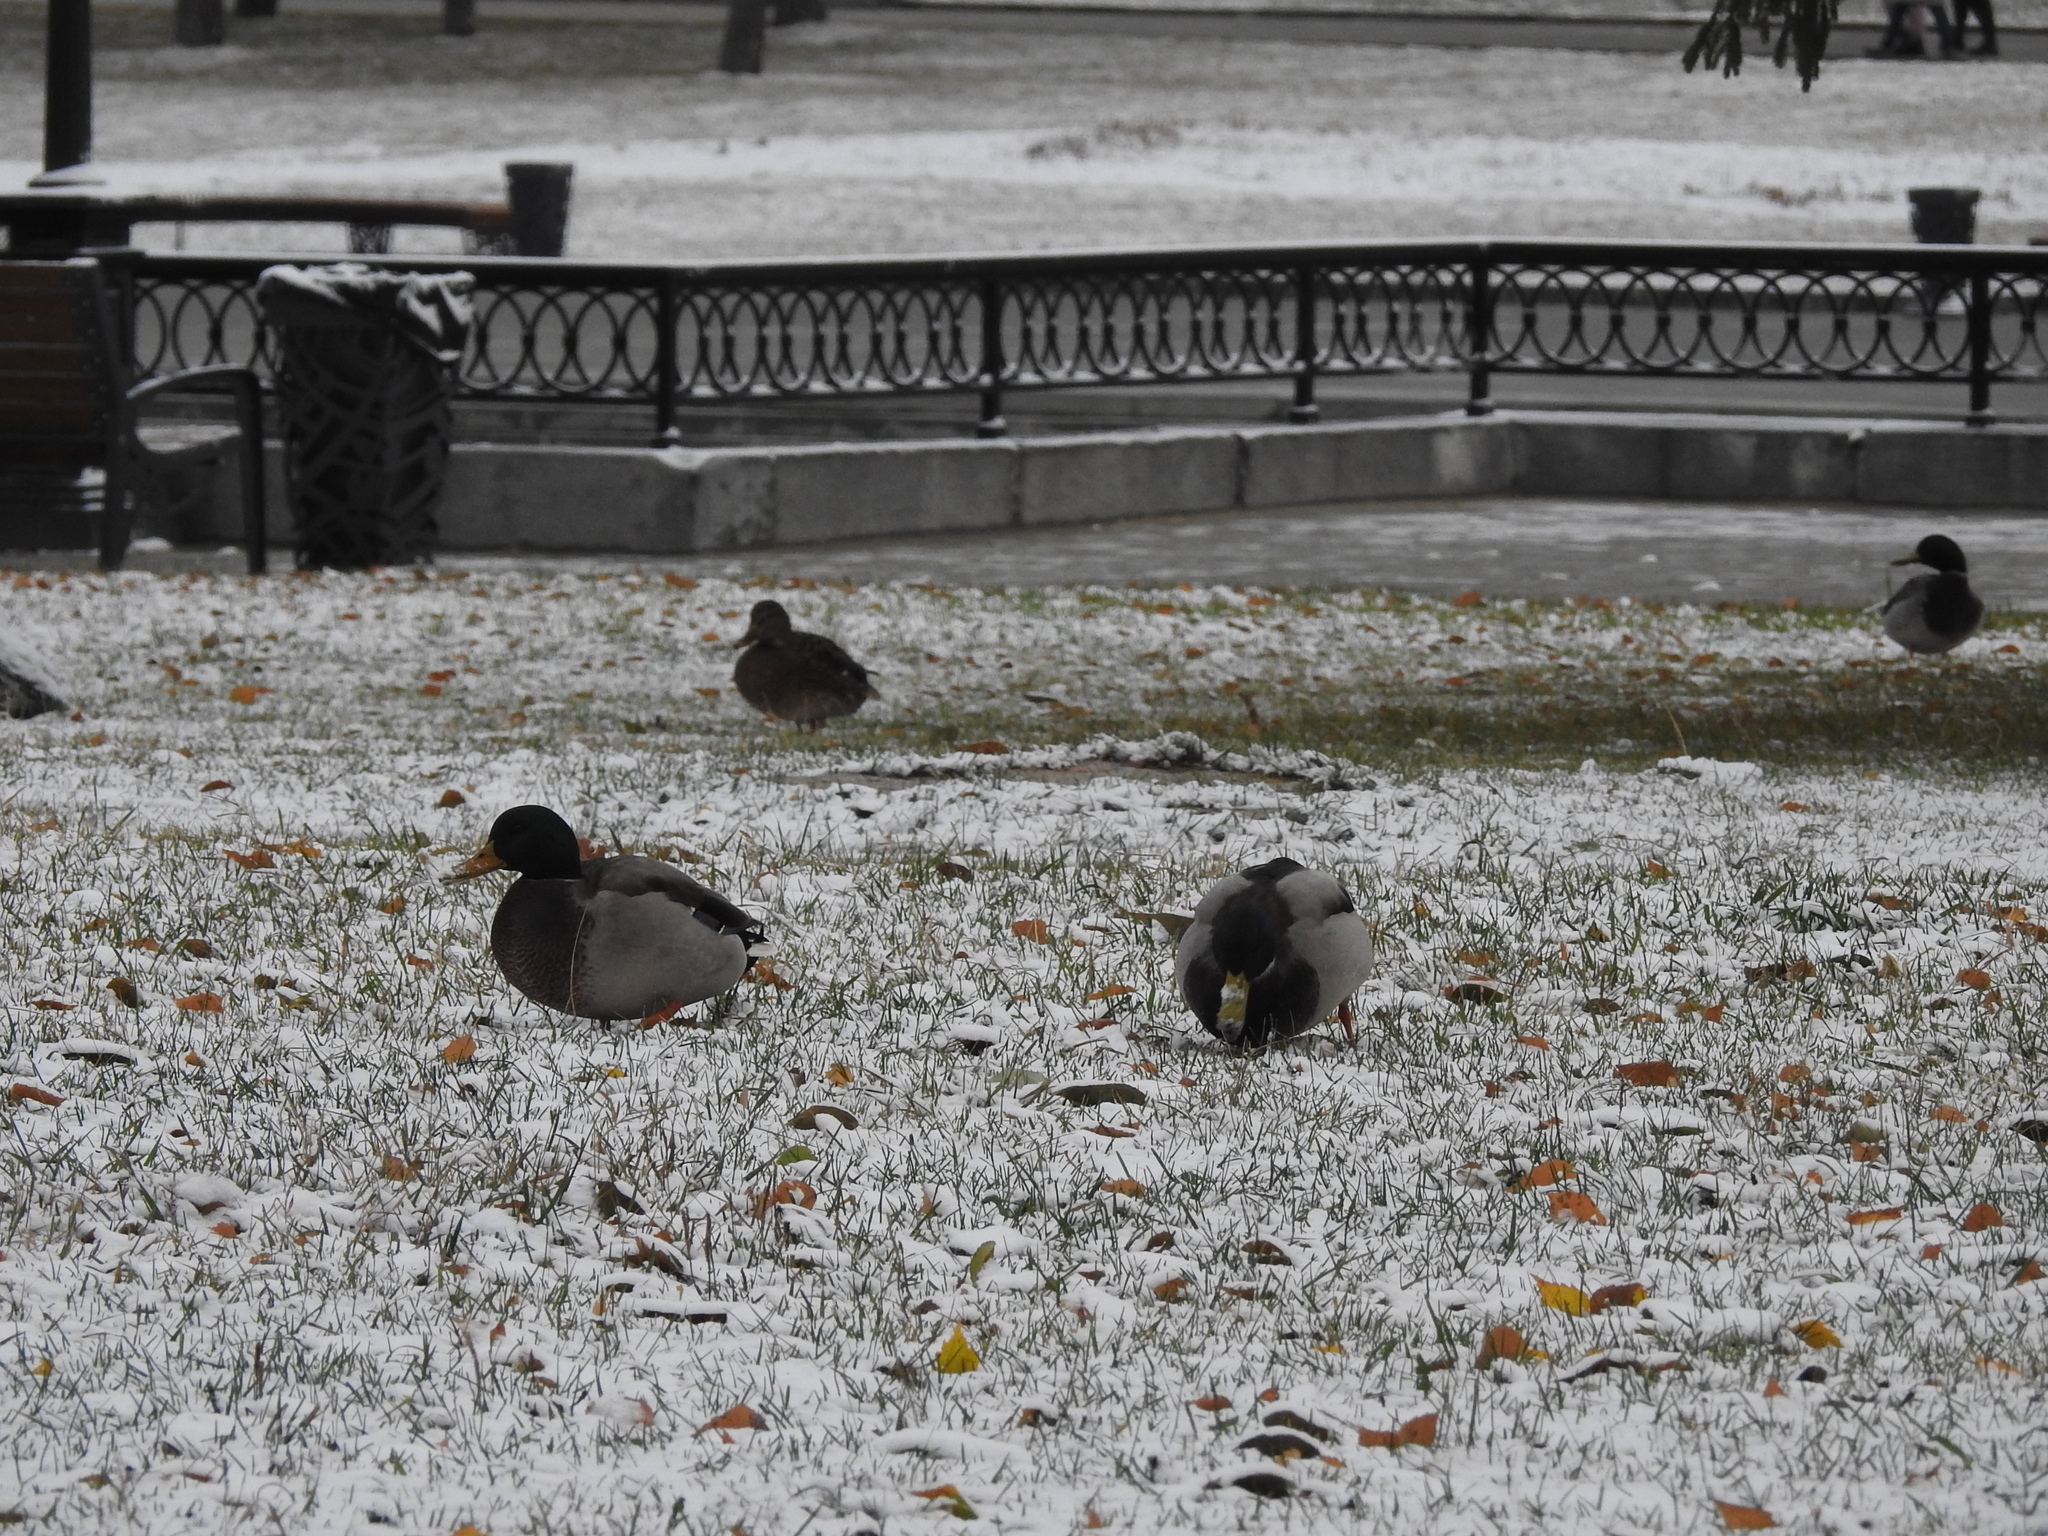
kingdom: Animalia
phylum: Chordata
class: Aves
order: Anseriformes
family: Anatidae
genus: Anas
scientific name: Anas platyrhynchos
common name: Mallard
